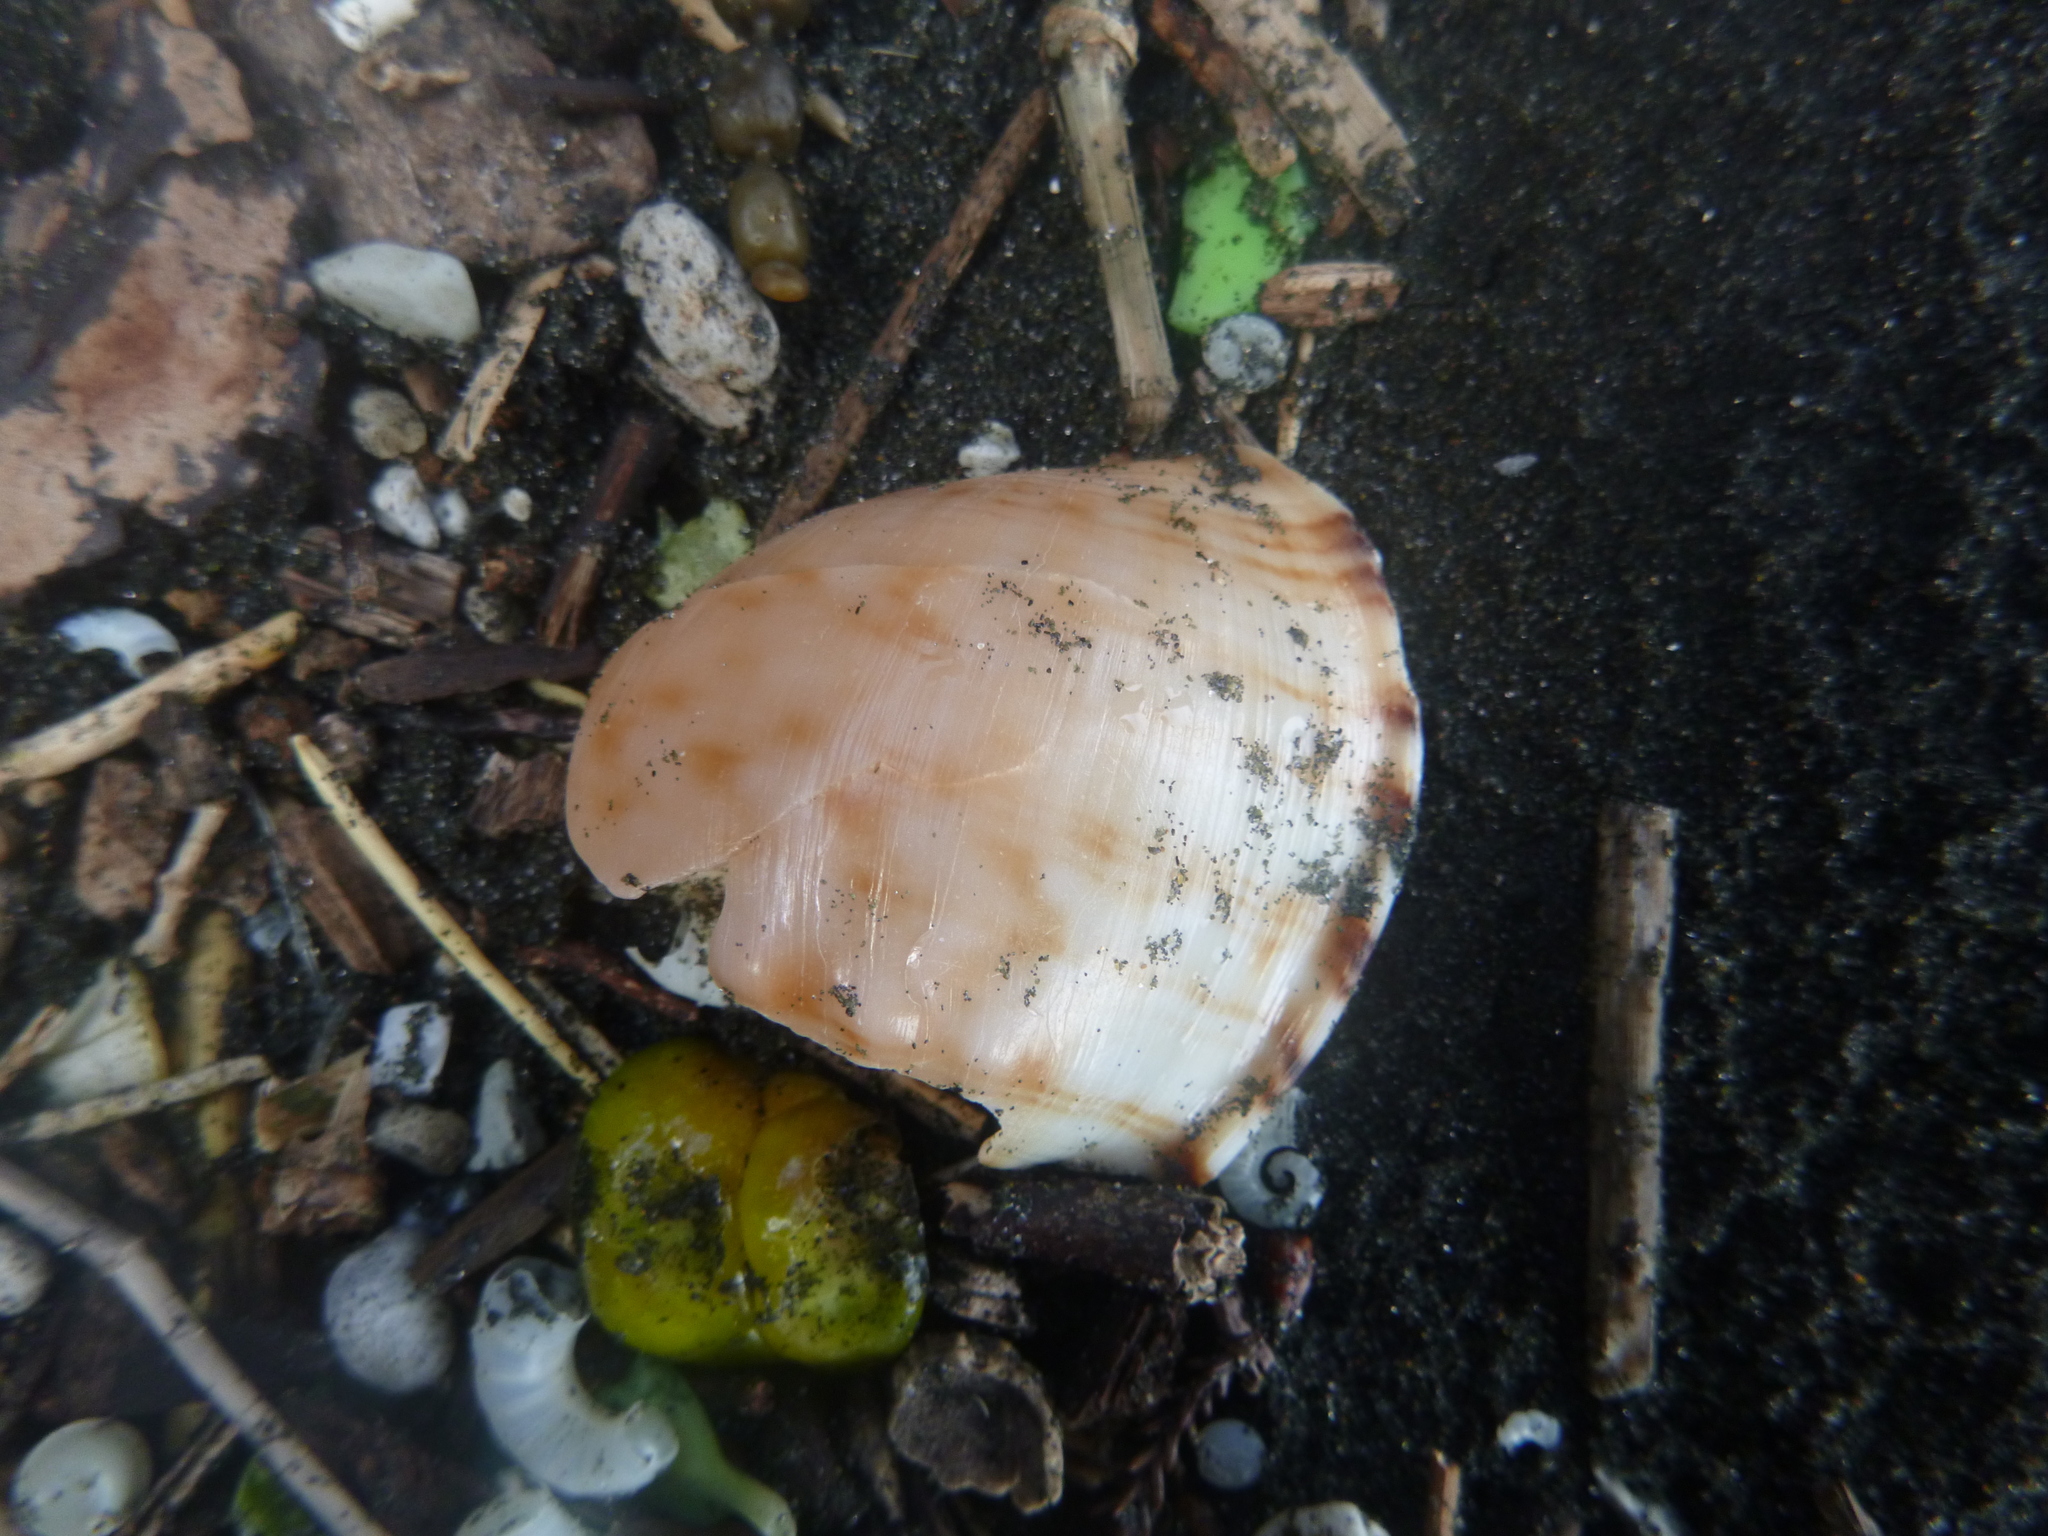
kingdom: Animalia
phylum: Mollusca
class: Gastropoda
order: Littorinimorpha
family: Cassidae
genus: Semicassis
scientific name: Semicassis pyrum
